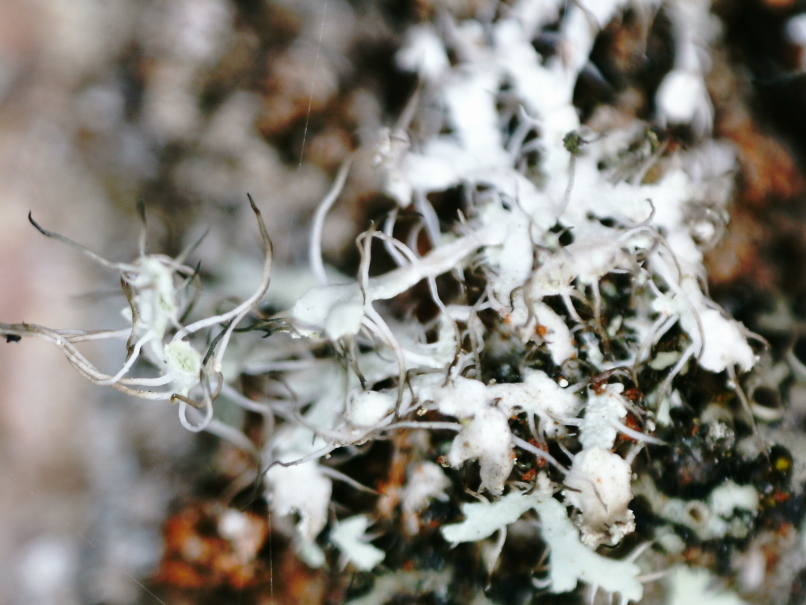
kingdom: Fungi
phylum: Ascomycota
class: Lecanoromycetes
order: Caliciales
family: Physciaceae
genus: Physcia
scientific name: Physcia adscendens
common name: Hooded rosette lichen
